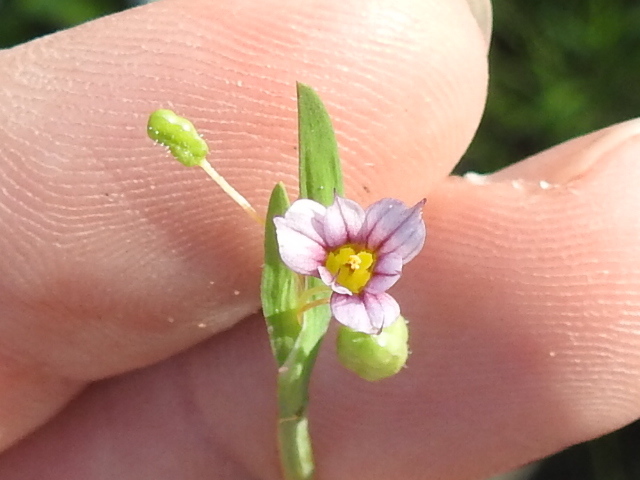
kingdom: Plantae
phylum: Tracheophyta
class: Liliopsida
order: Asparagales
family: Iridaceae
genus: Sisyrinchium
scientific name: Sisyrinchium minus
